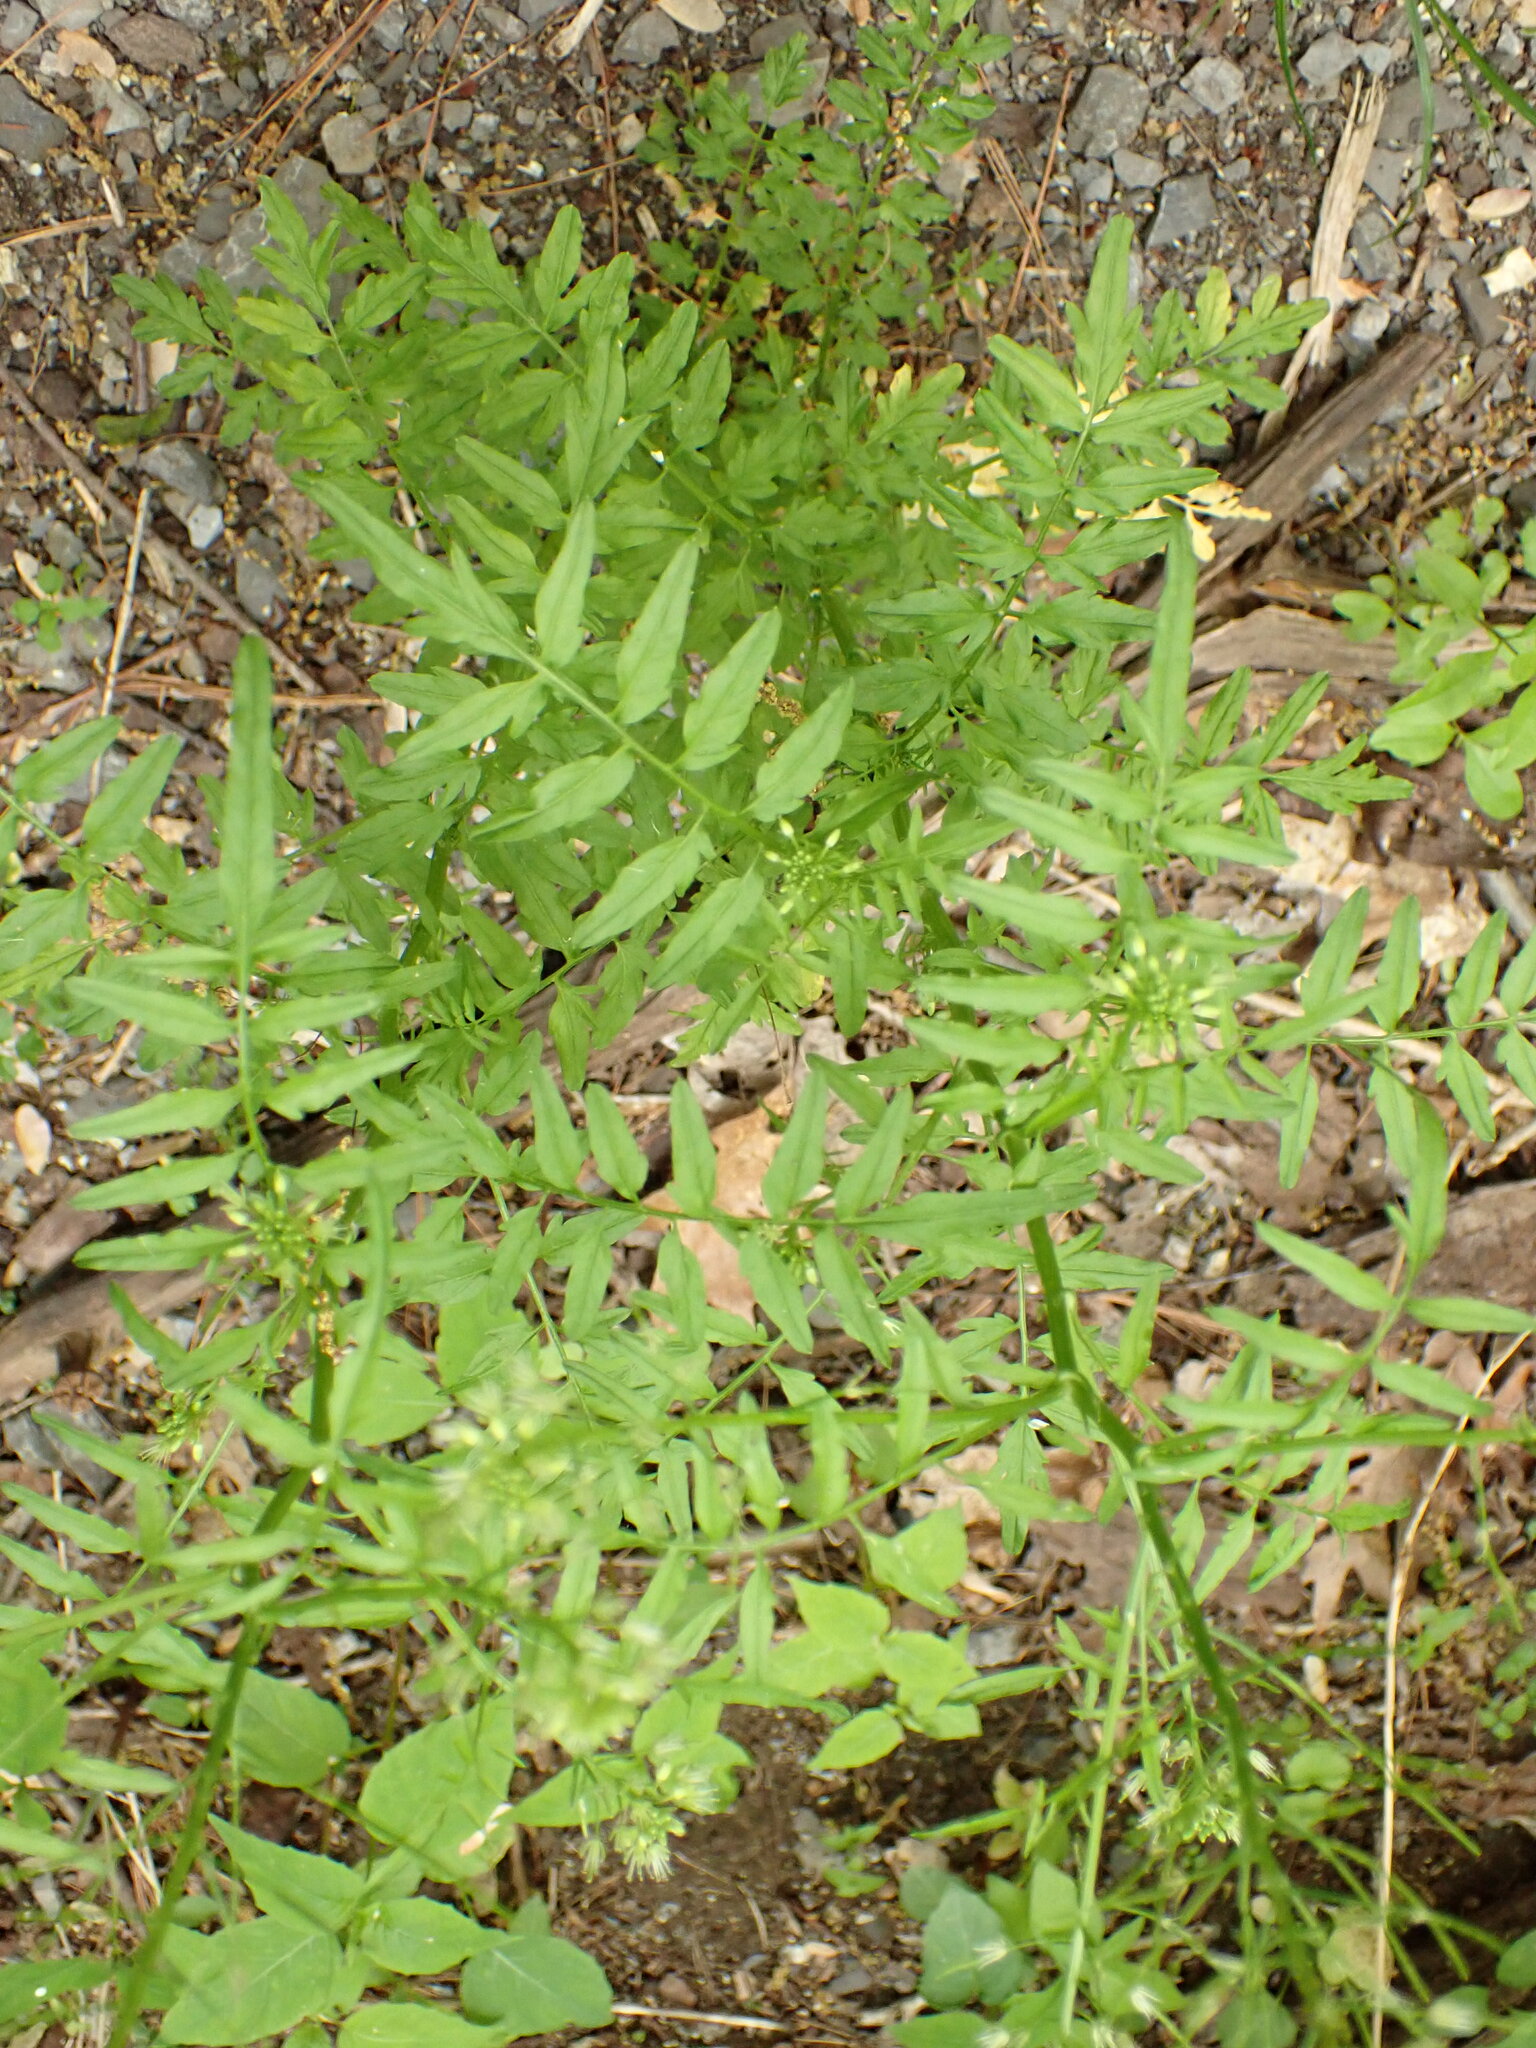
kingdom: Plantae
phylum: Tracheophyta
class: Magnoliopsida
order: Brassicales
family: Brassicaceae
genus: Cardamine
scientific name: Cardamine impatiens
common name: Narrow-leaved bitter-cress
